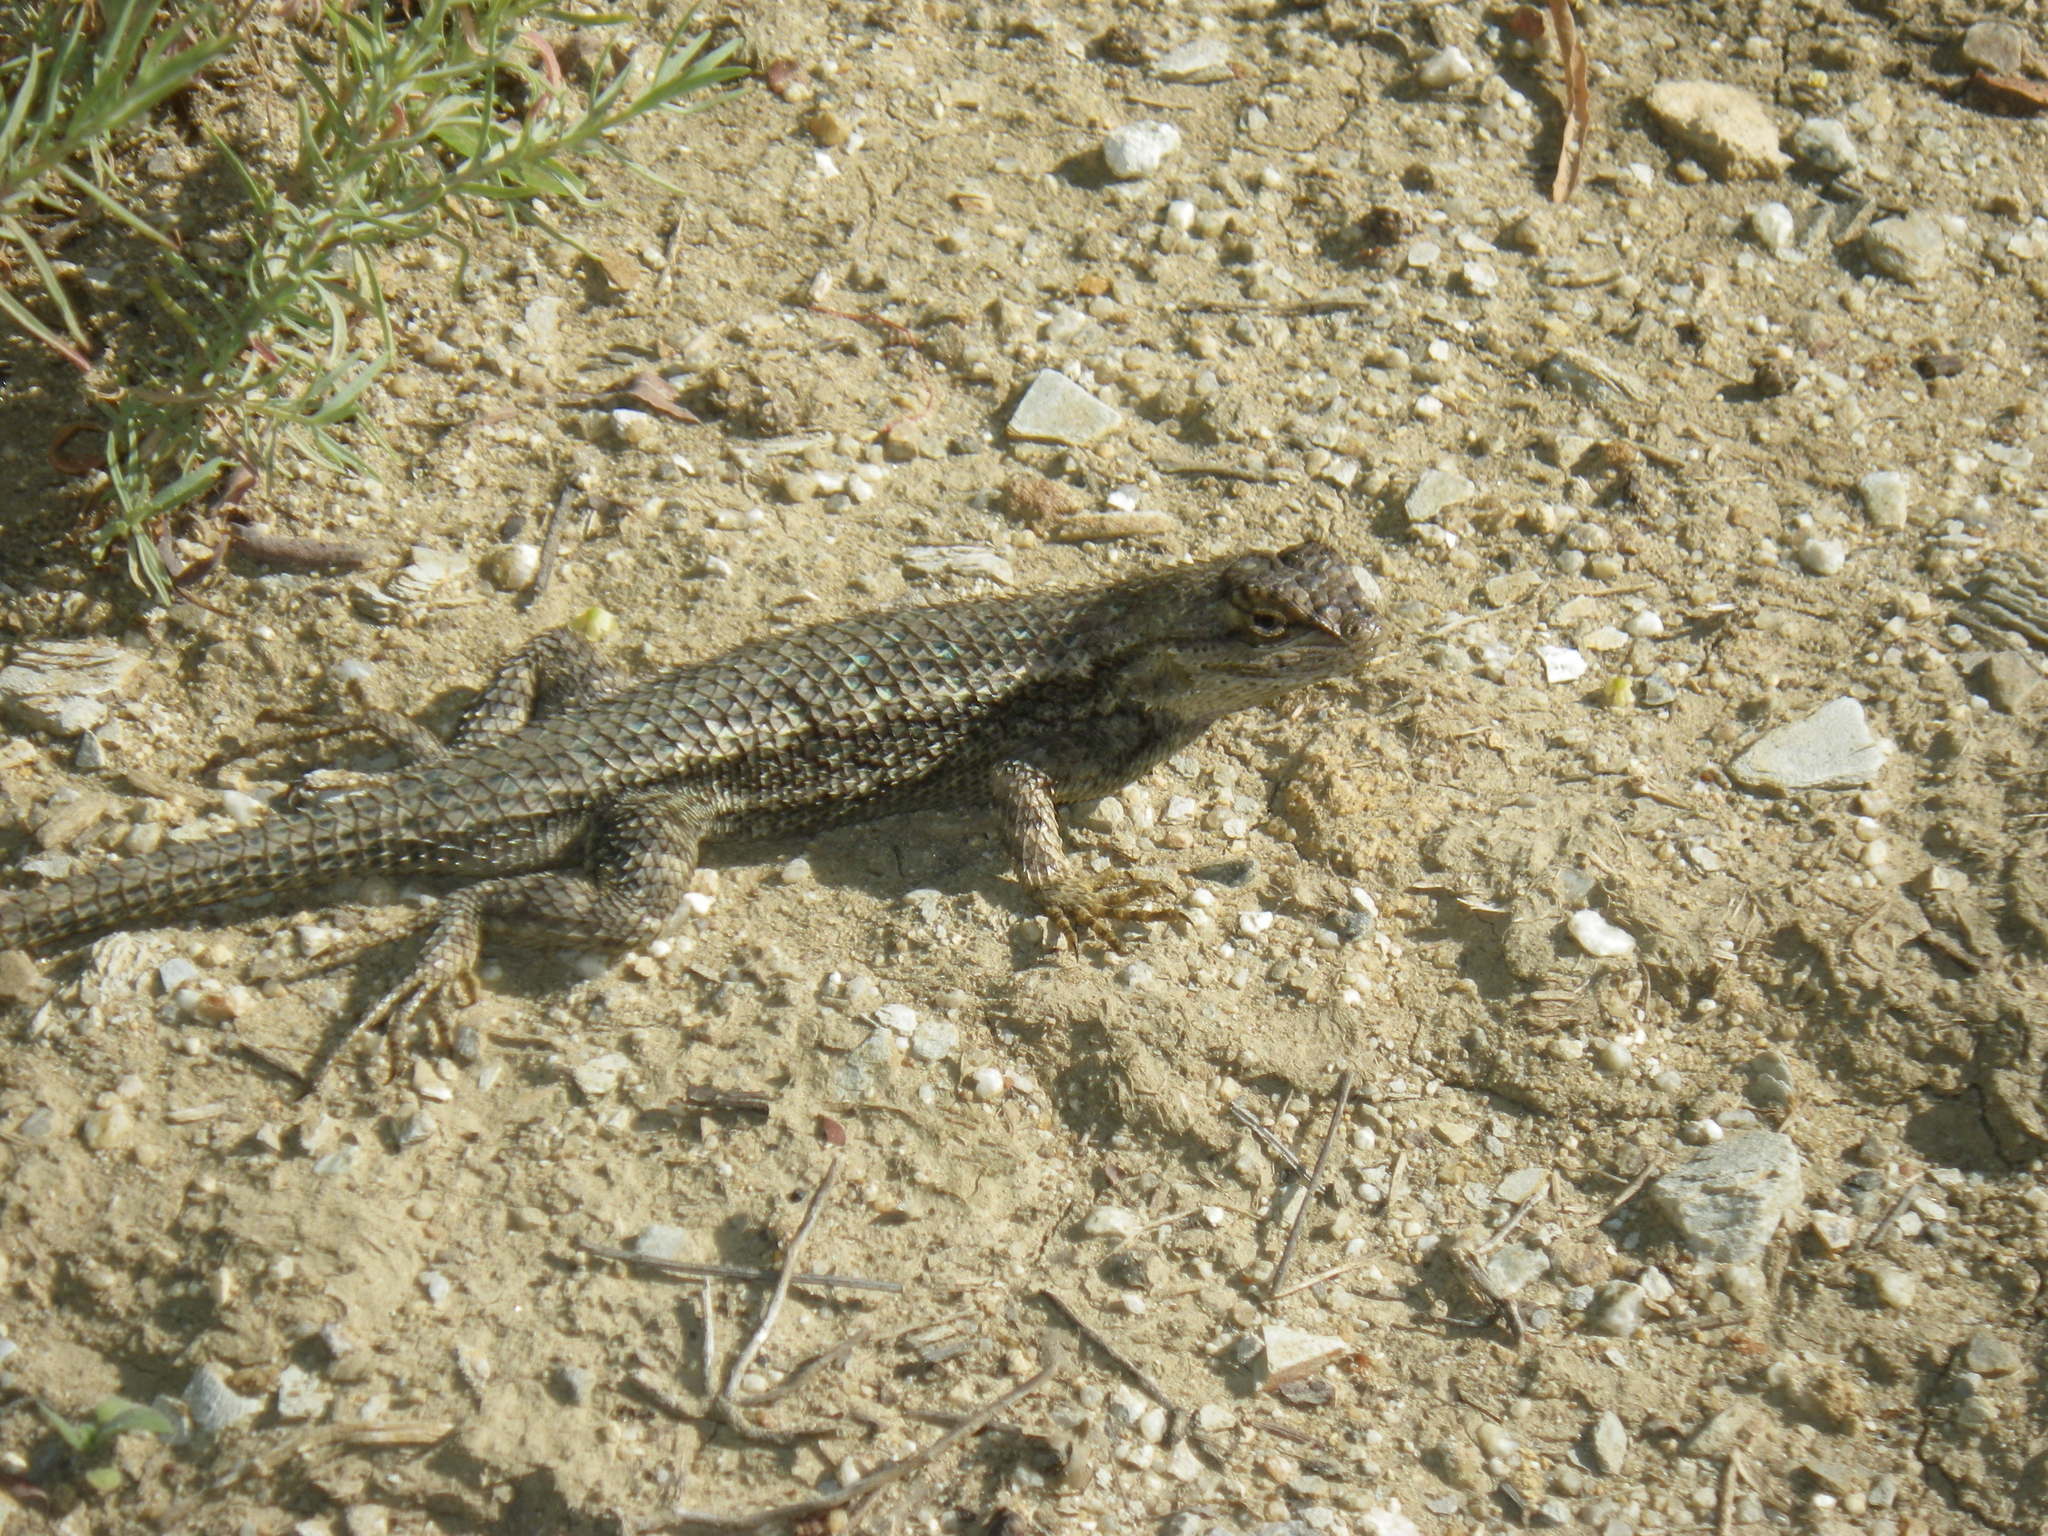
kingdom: Animalia
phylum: Chordata
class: Squamata
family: Phrynosomatidae
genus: Sceloporus
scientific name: Sceloporus occidentalis
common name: Western fence lizard
